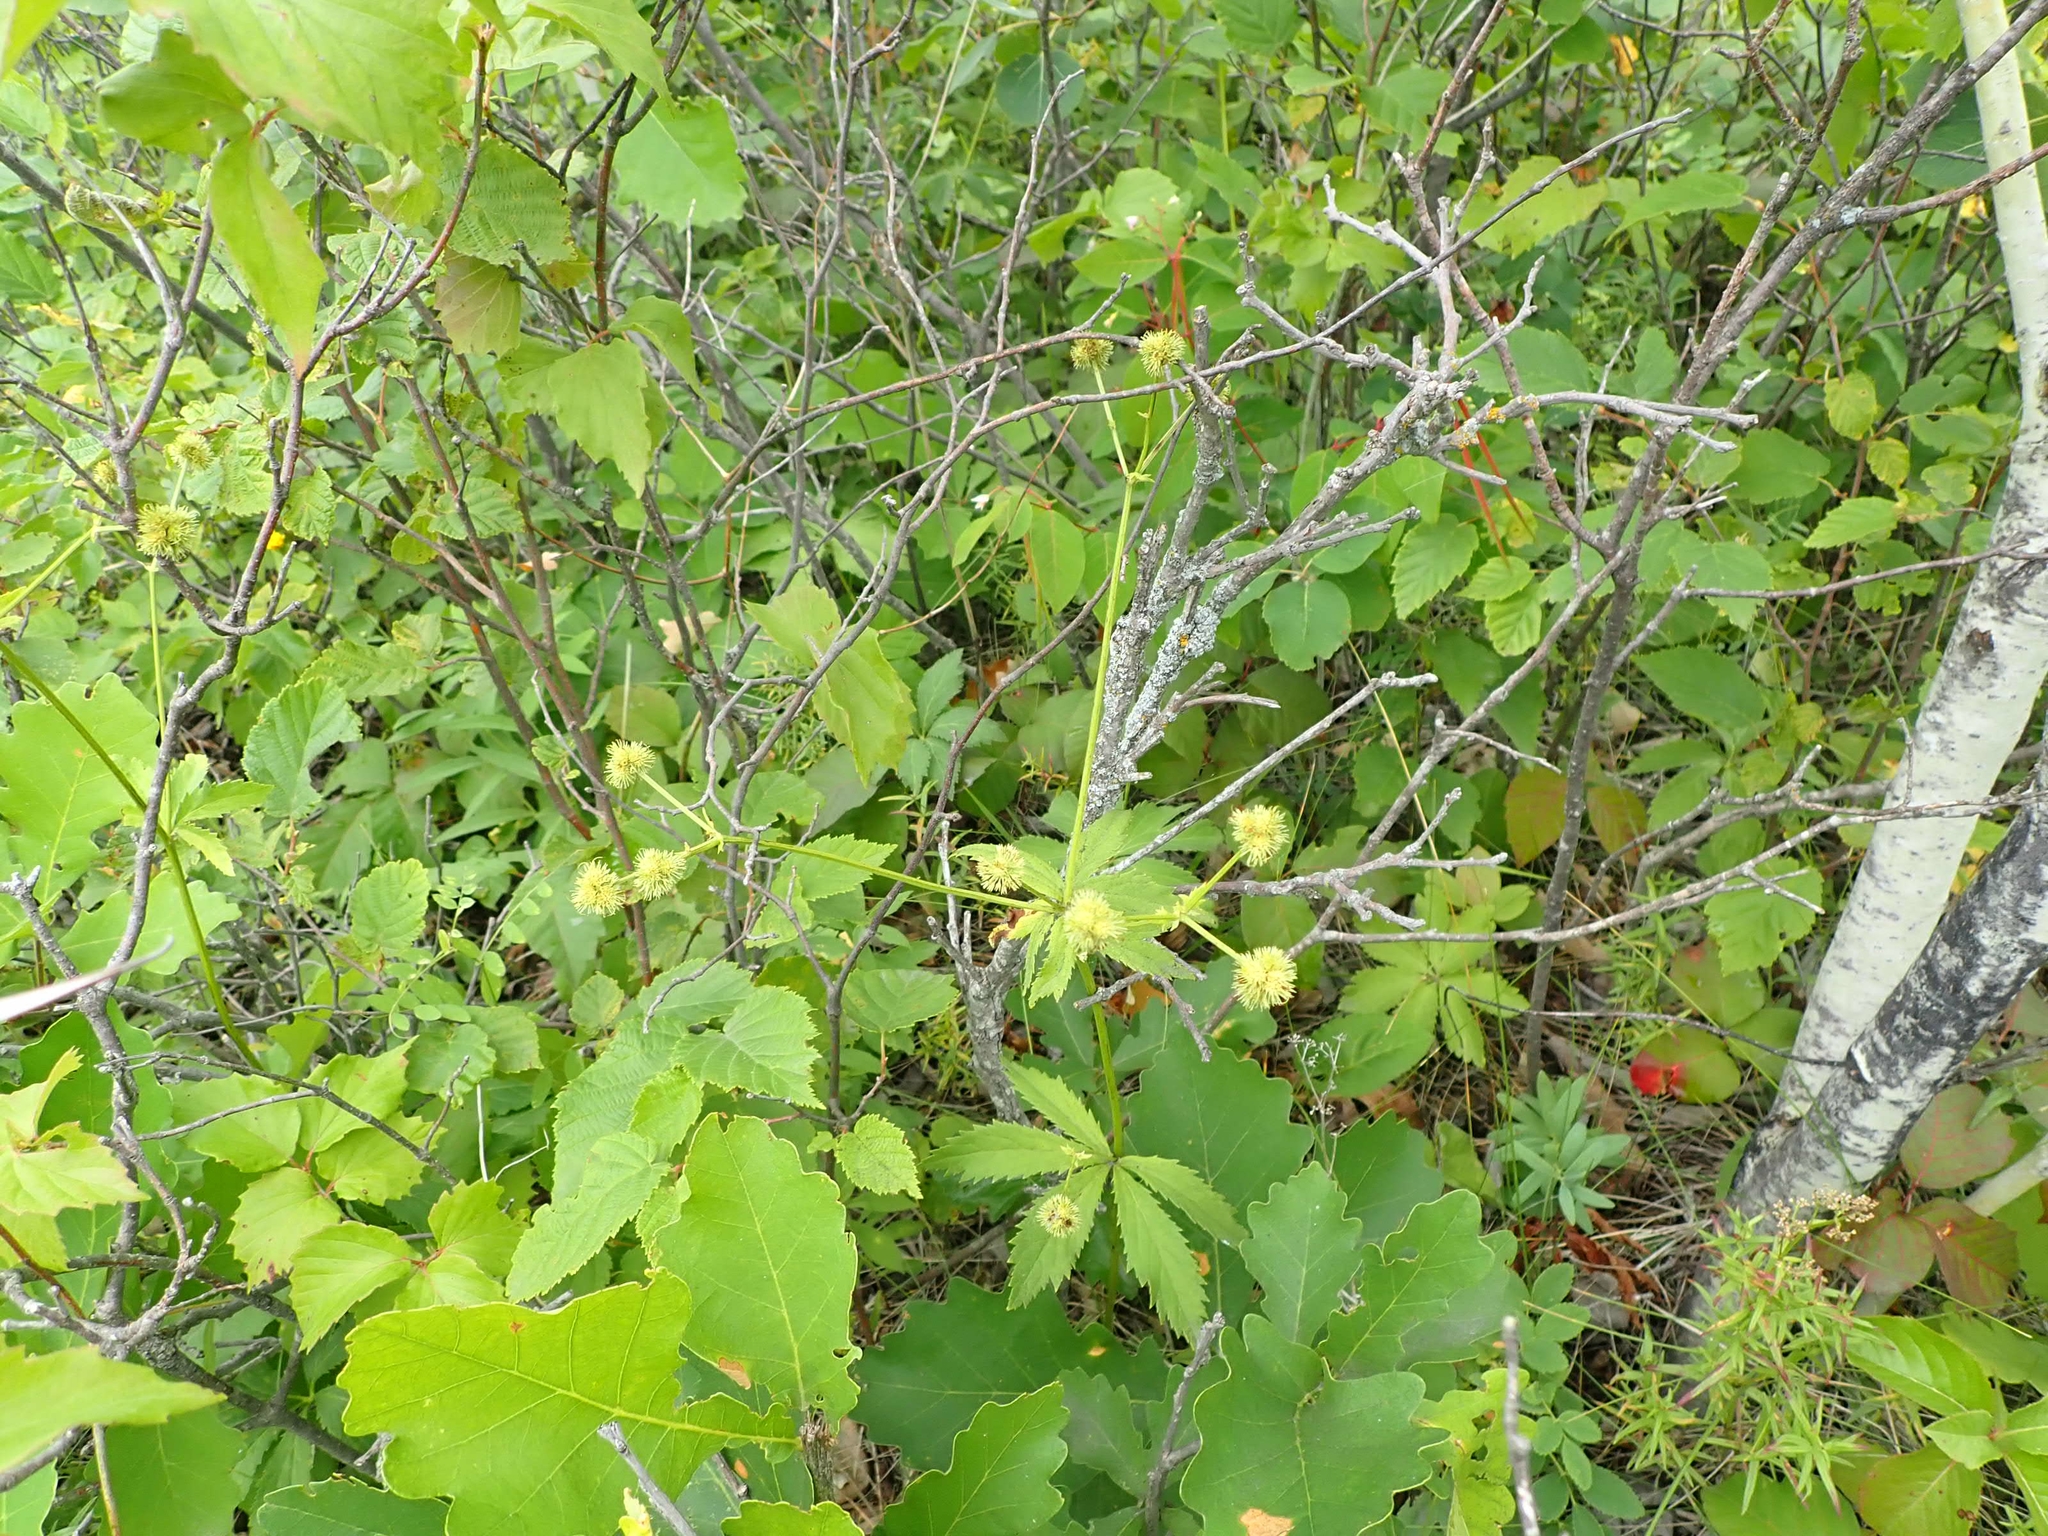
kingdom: Plantae
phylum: Tracheophyta
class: Magnoliopsida
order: Apiales
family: Apiaceae
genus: Sanicula
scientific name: Sanicula marilandica
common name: Black snakeroot
